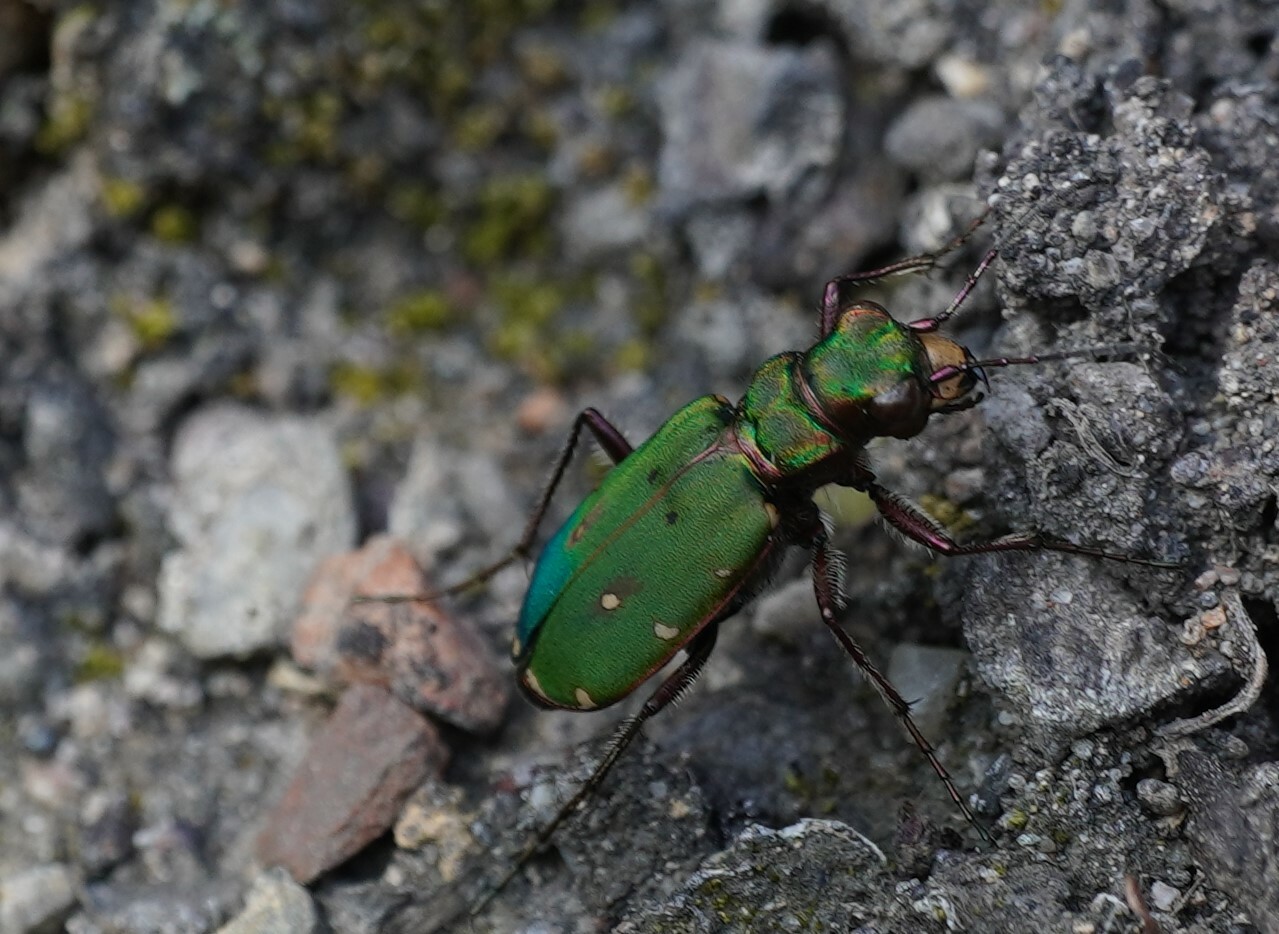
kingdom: Animalia
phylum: Arthropoda
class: Insecta
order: Coleoptera
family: Carabidae
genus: Cicindela
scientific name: Cicindela campestris
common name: Common tiger beetle
